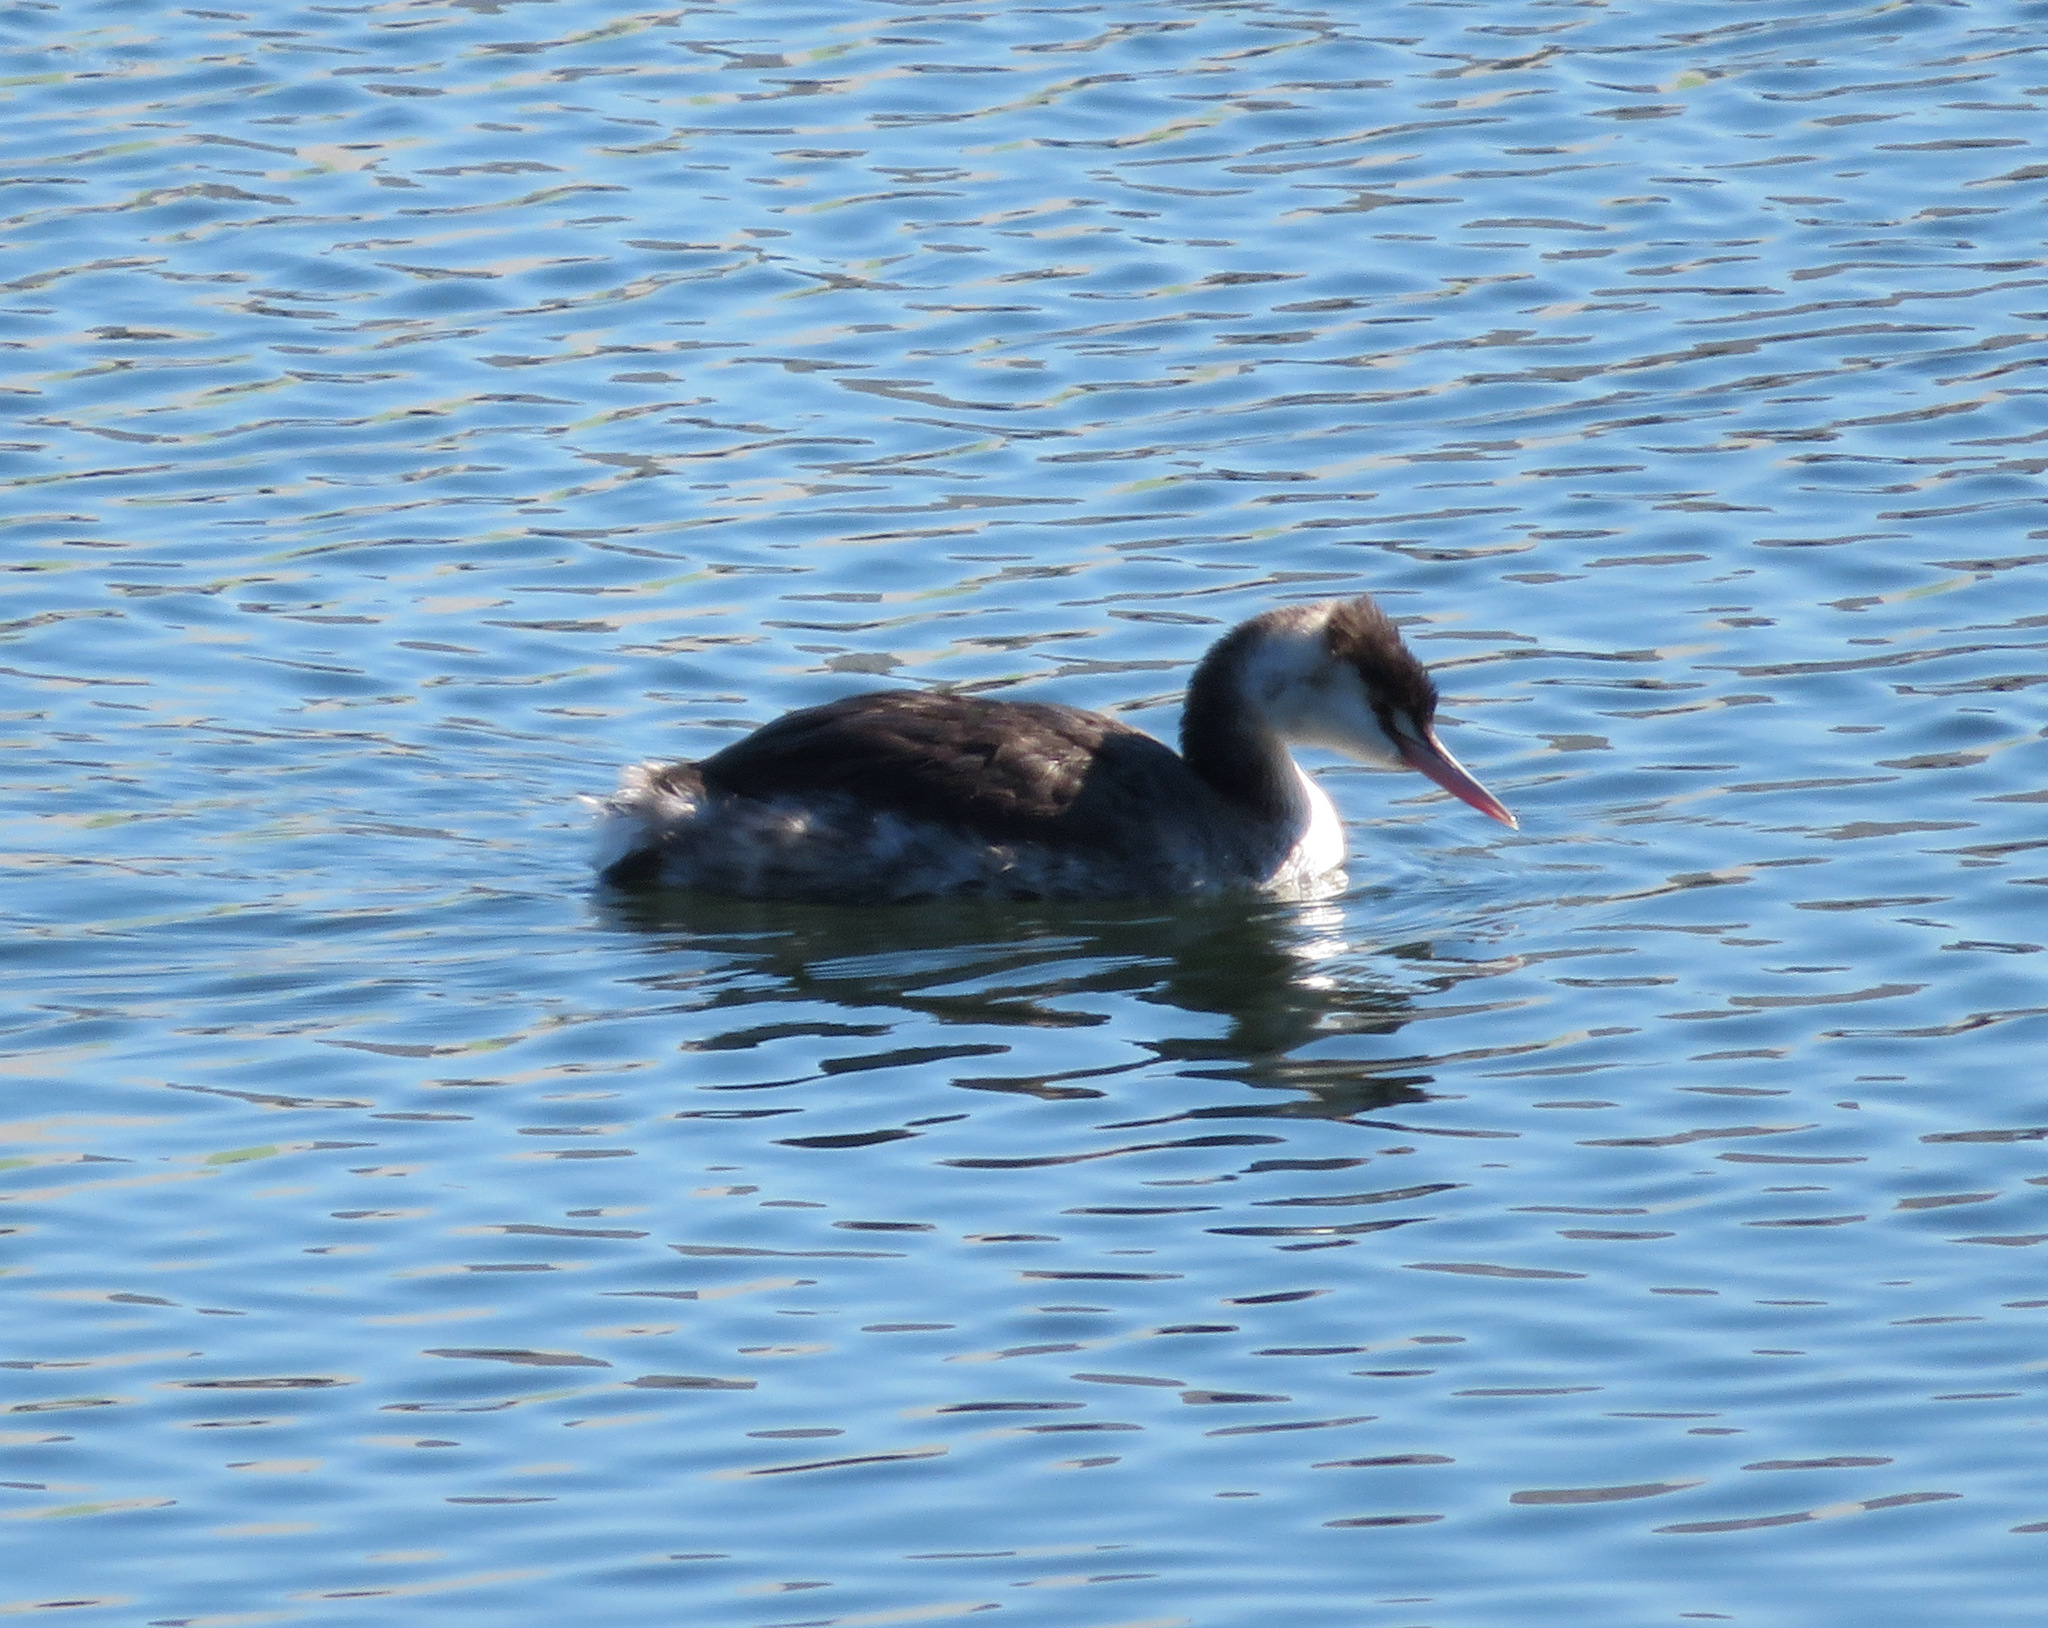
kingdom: Animalia
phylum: Chordata
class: Aves
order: Podicipediformes
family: Podicipedidae
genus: Podiceps
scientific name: Podiceps cristatus
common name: Great crested grebe
